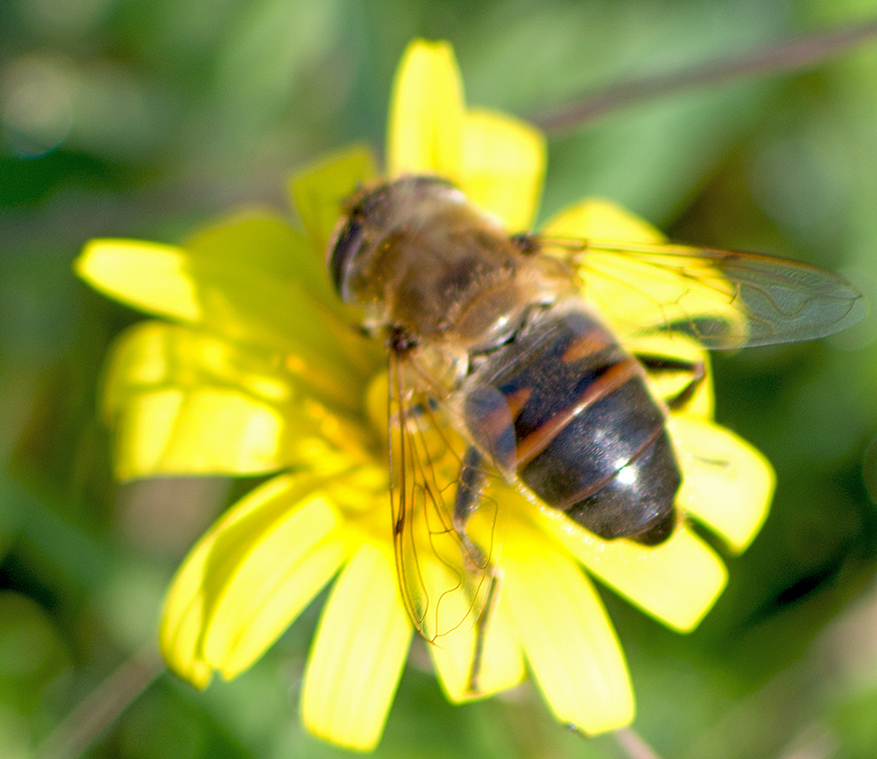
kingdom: Animalia
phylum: Arthropoda
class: Insecta
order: Diptera
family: Syrphidae
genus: Eristalis
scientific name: Eristalis tenax
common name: Drone fly
